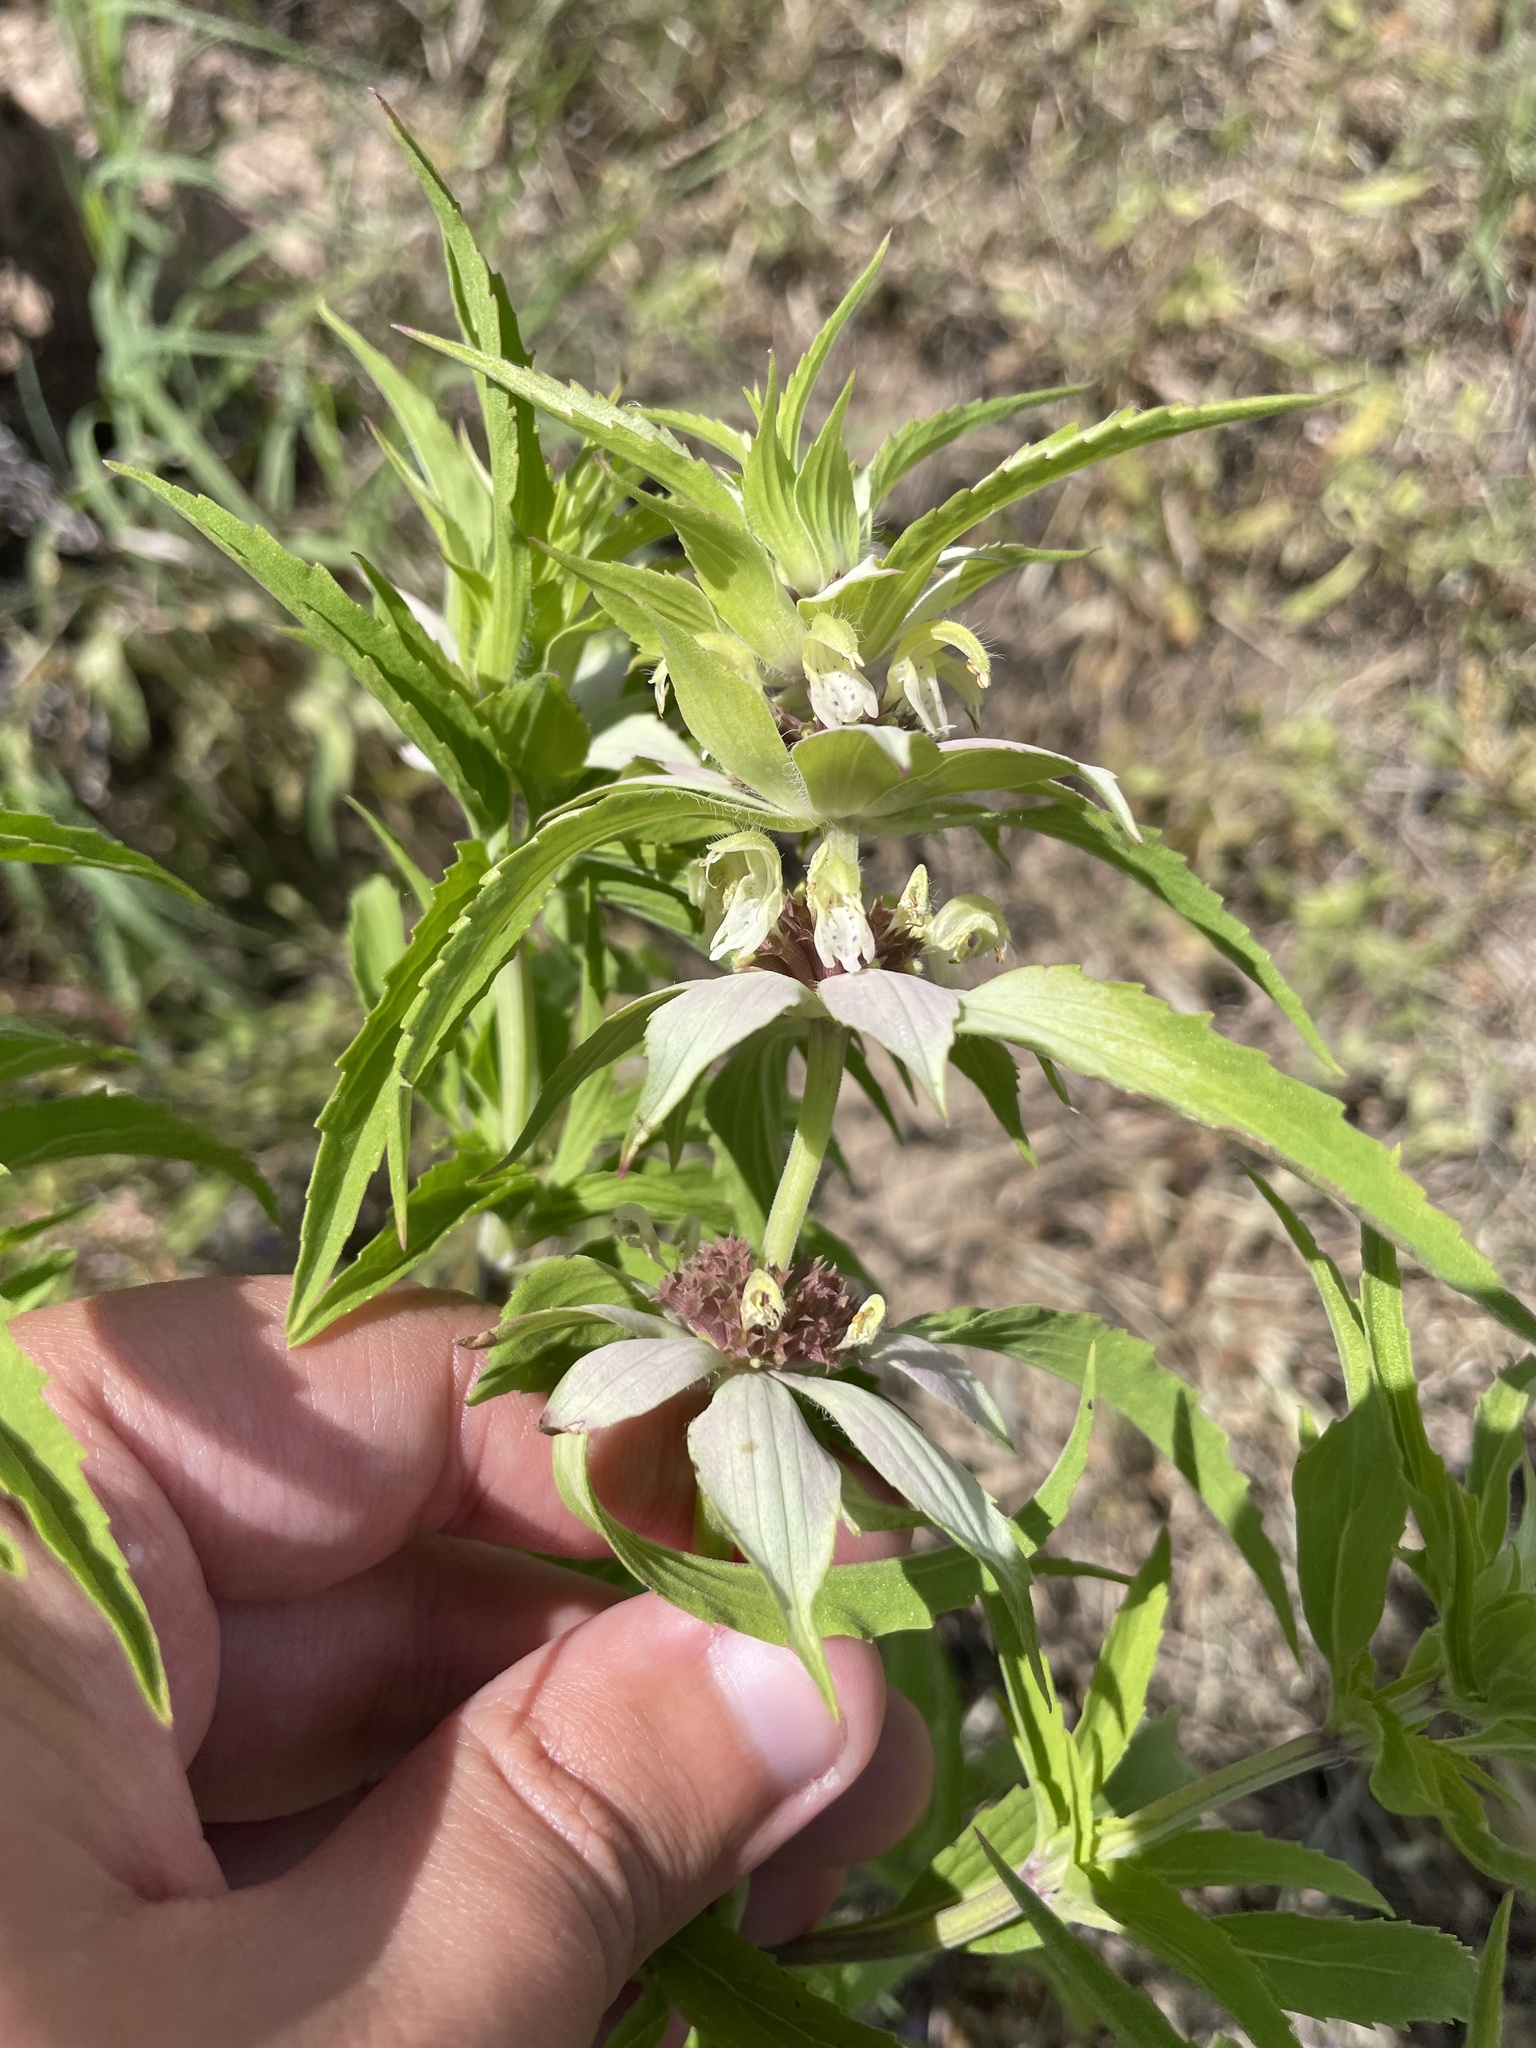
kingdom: Plantae
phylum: Tracheophyta
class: Magnoliopsida
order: Lamiales
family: Lamiaceae
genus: Monarda
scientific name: Monarda punctata
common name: Dotted monarda
